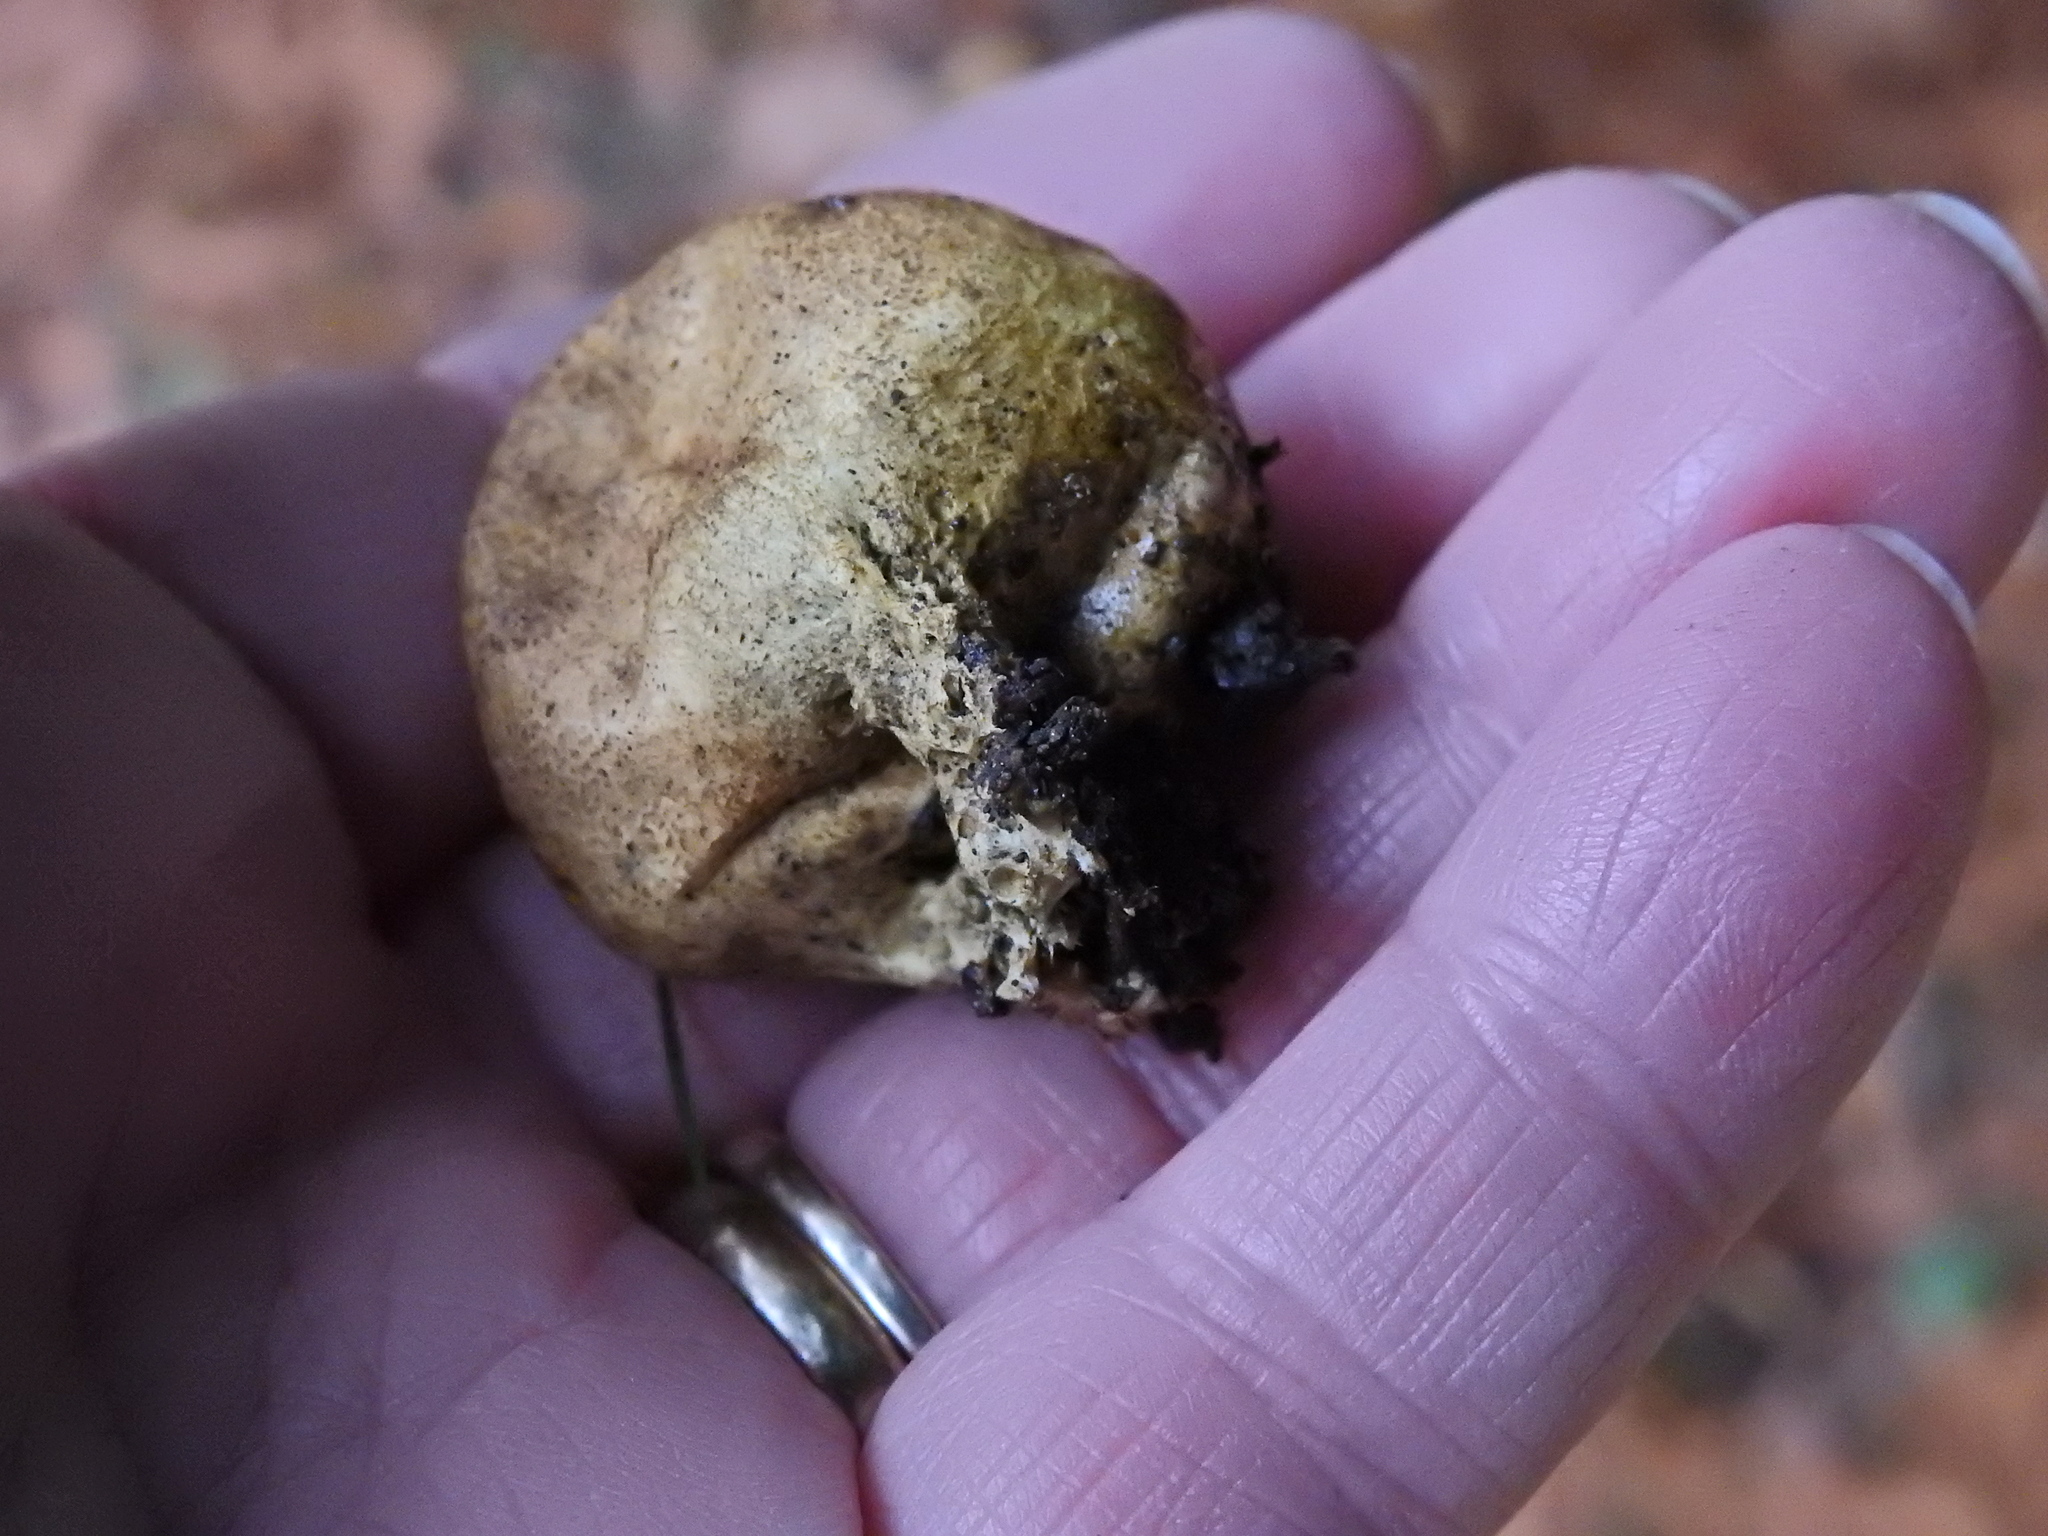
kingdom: Fungi
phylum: Basidiomycota
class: Agaricomycetes
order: Boletales
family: Sclerodermataceae
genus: Scleroderma
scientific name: Scleroderma citrinum
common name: Common earthball
